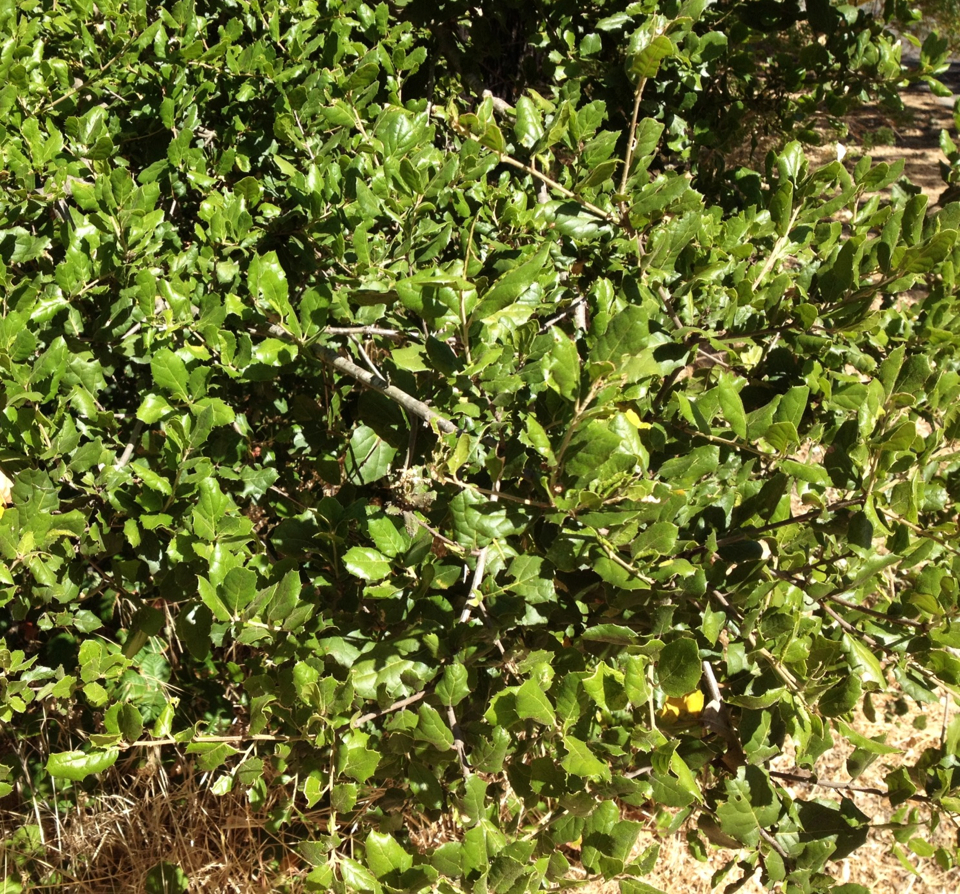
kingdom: Plantae
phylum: Tracheophyta
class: Magnoliopsida
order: Fagales
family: Fagaceae
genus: Quercus
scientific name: Quercus agrifolia
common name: California live oak
